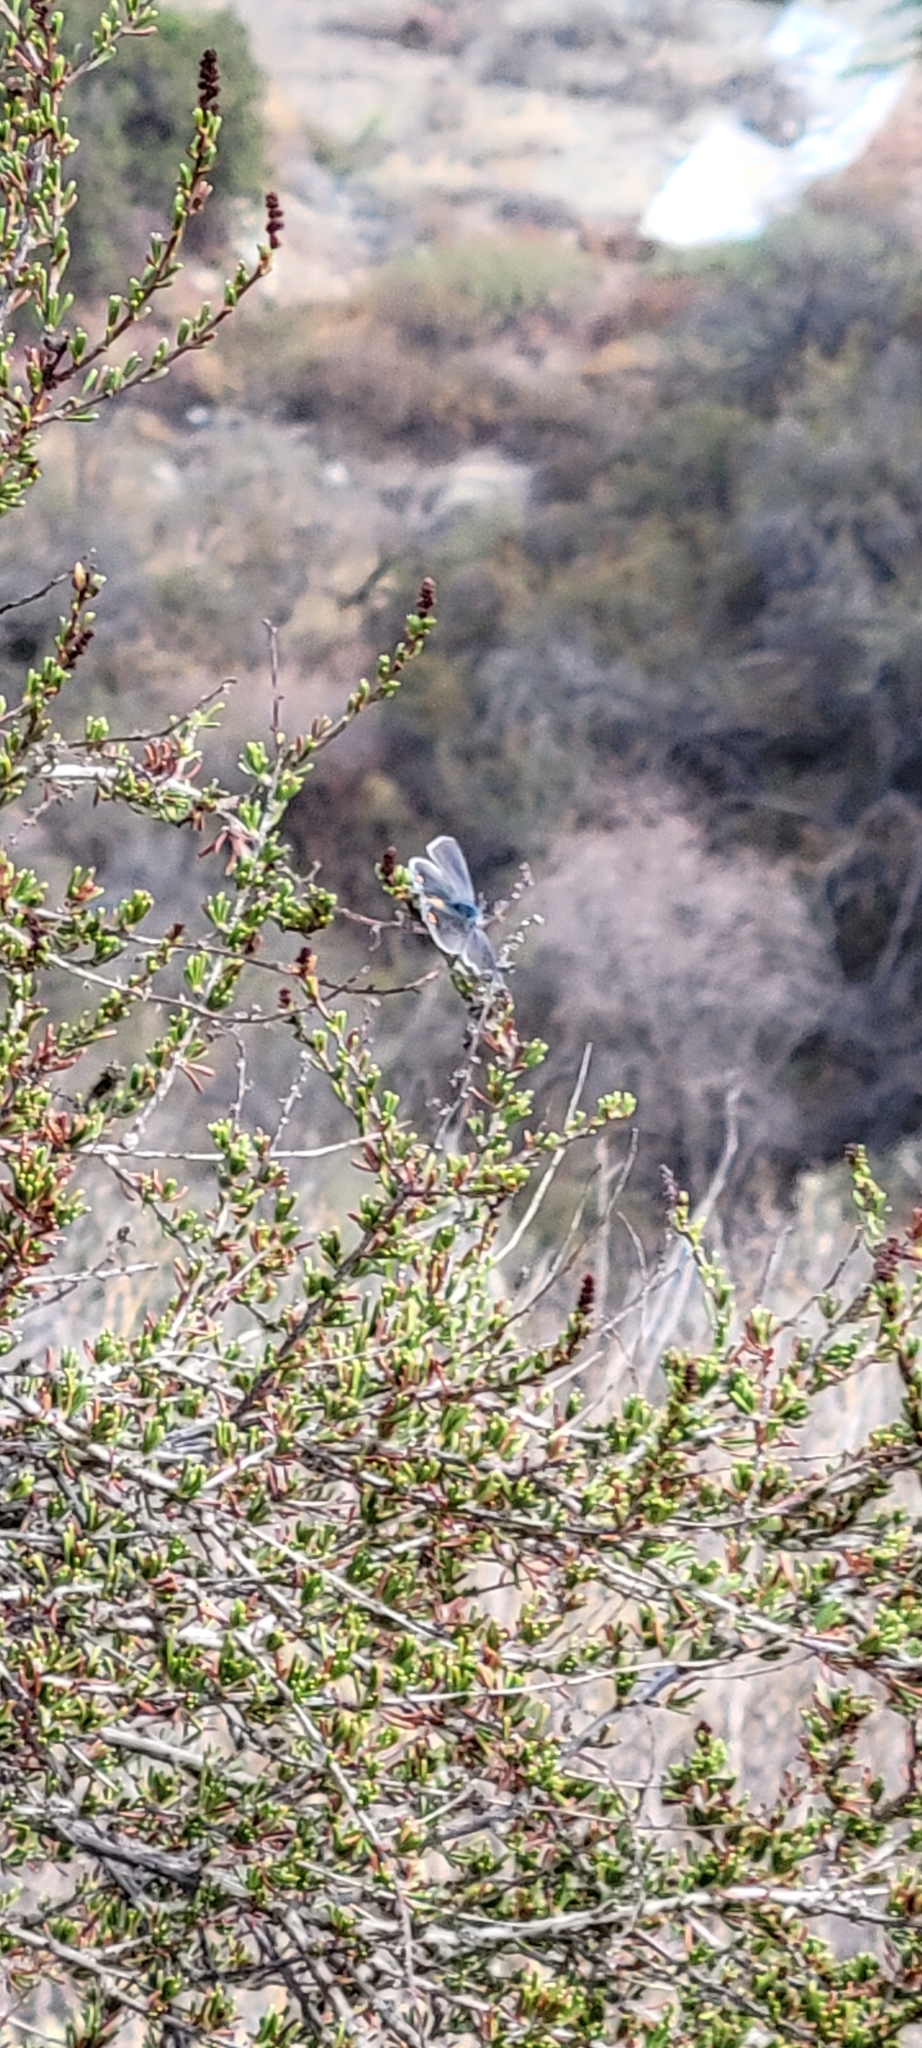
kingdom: Animalia
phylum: Arthropoda
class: Insecta
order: Lepidoptera
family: Lycaenidae
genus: Strymon
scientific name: Strymon melinus
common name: Gray hairstreak
